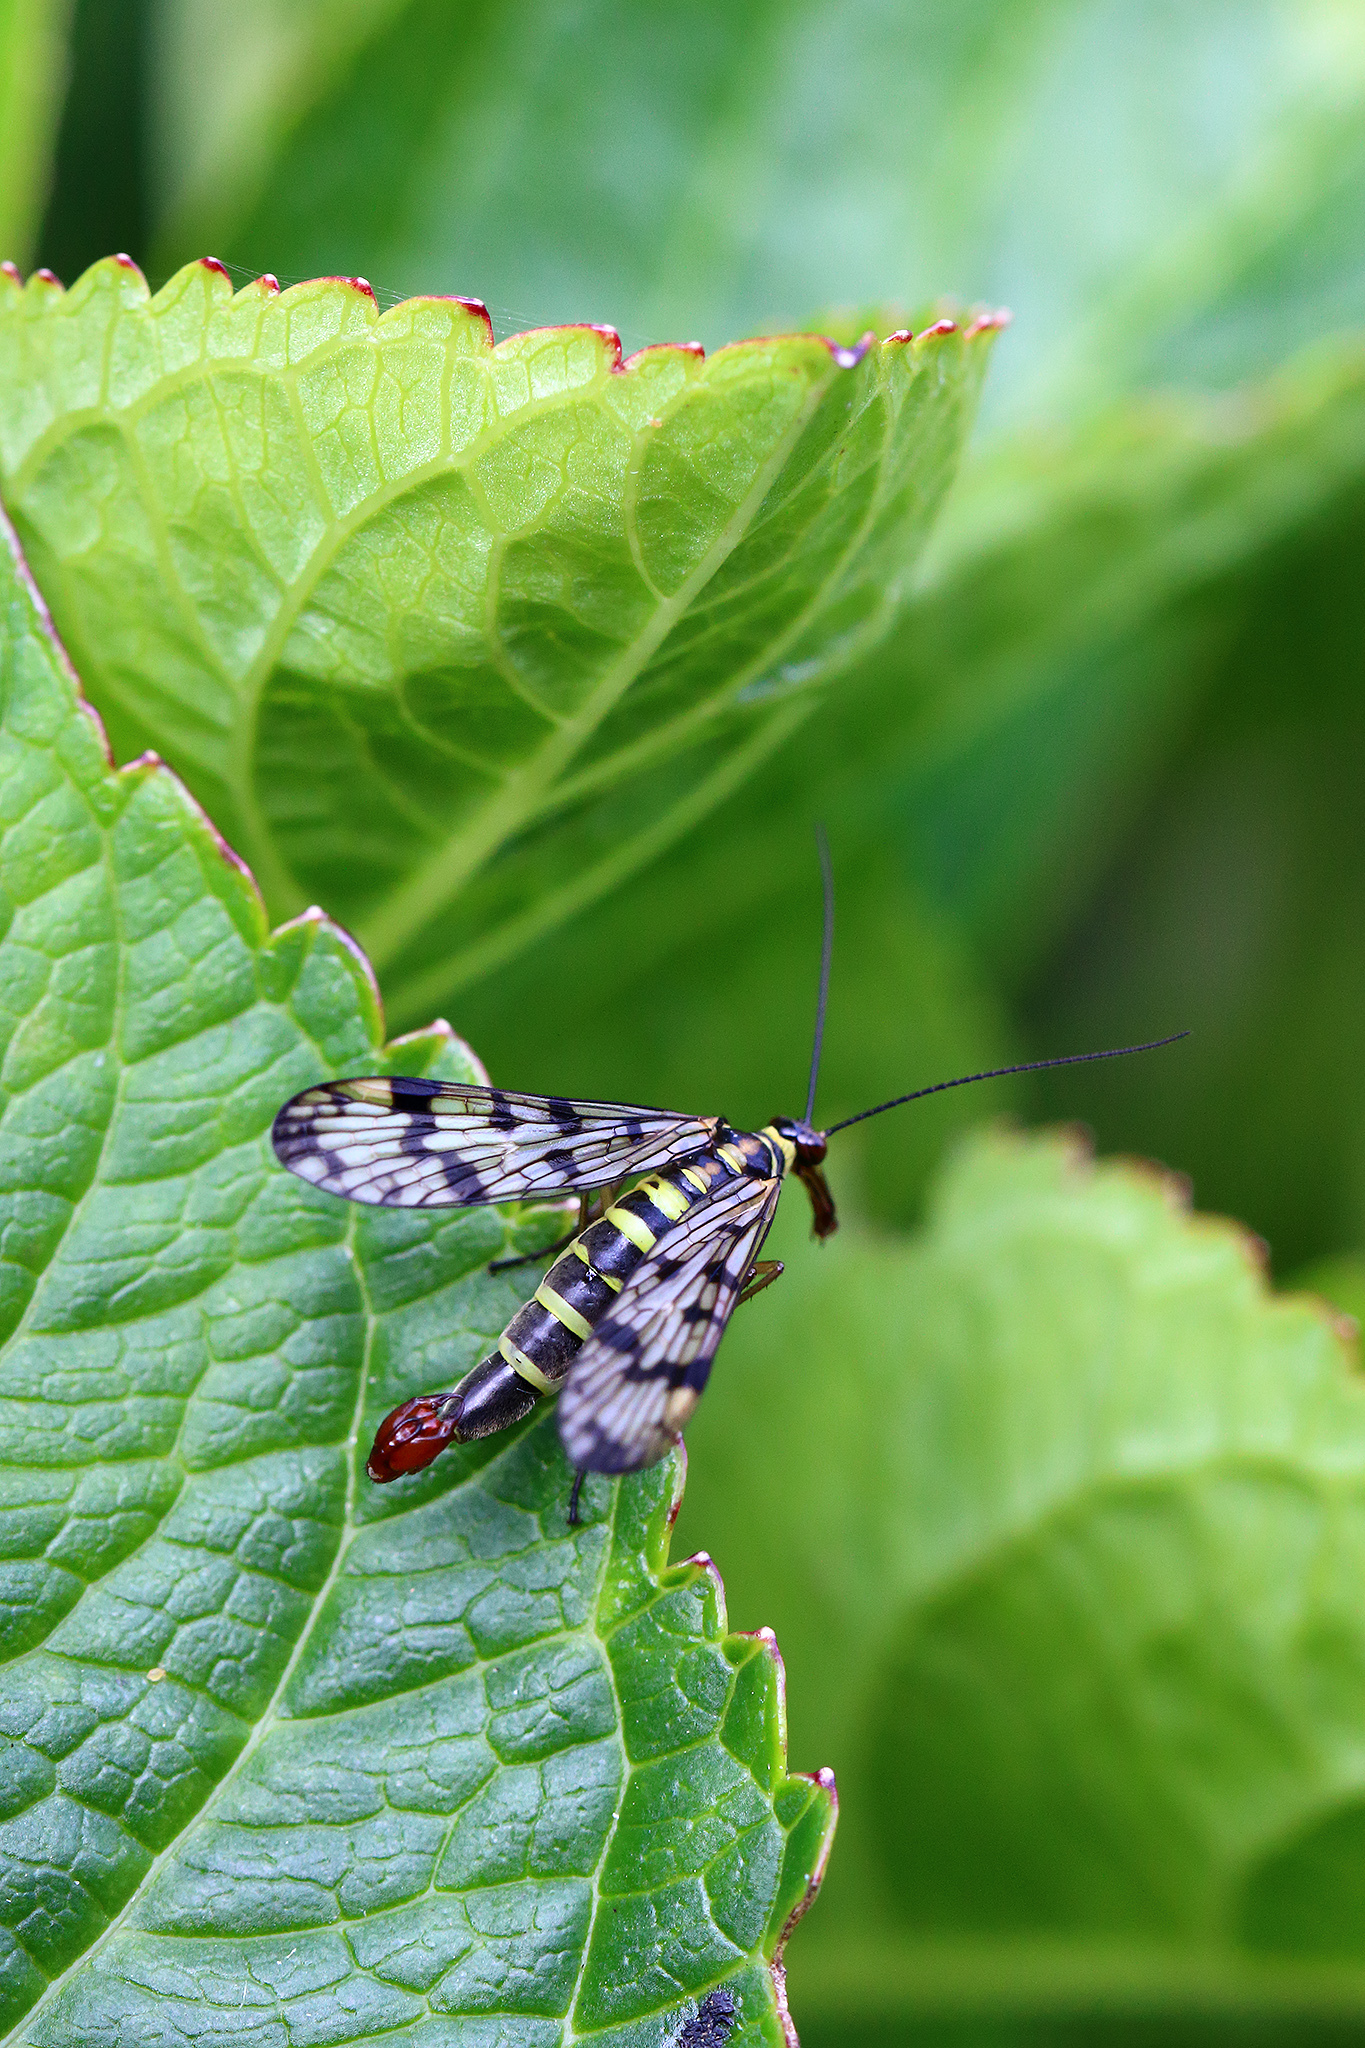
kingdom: Animalia
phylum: Arthropoda
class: Insecta
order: Mecoptera
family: Panorpidae
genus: Panorpa
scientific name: Panorpa communis
